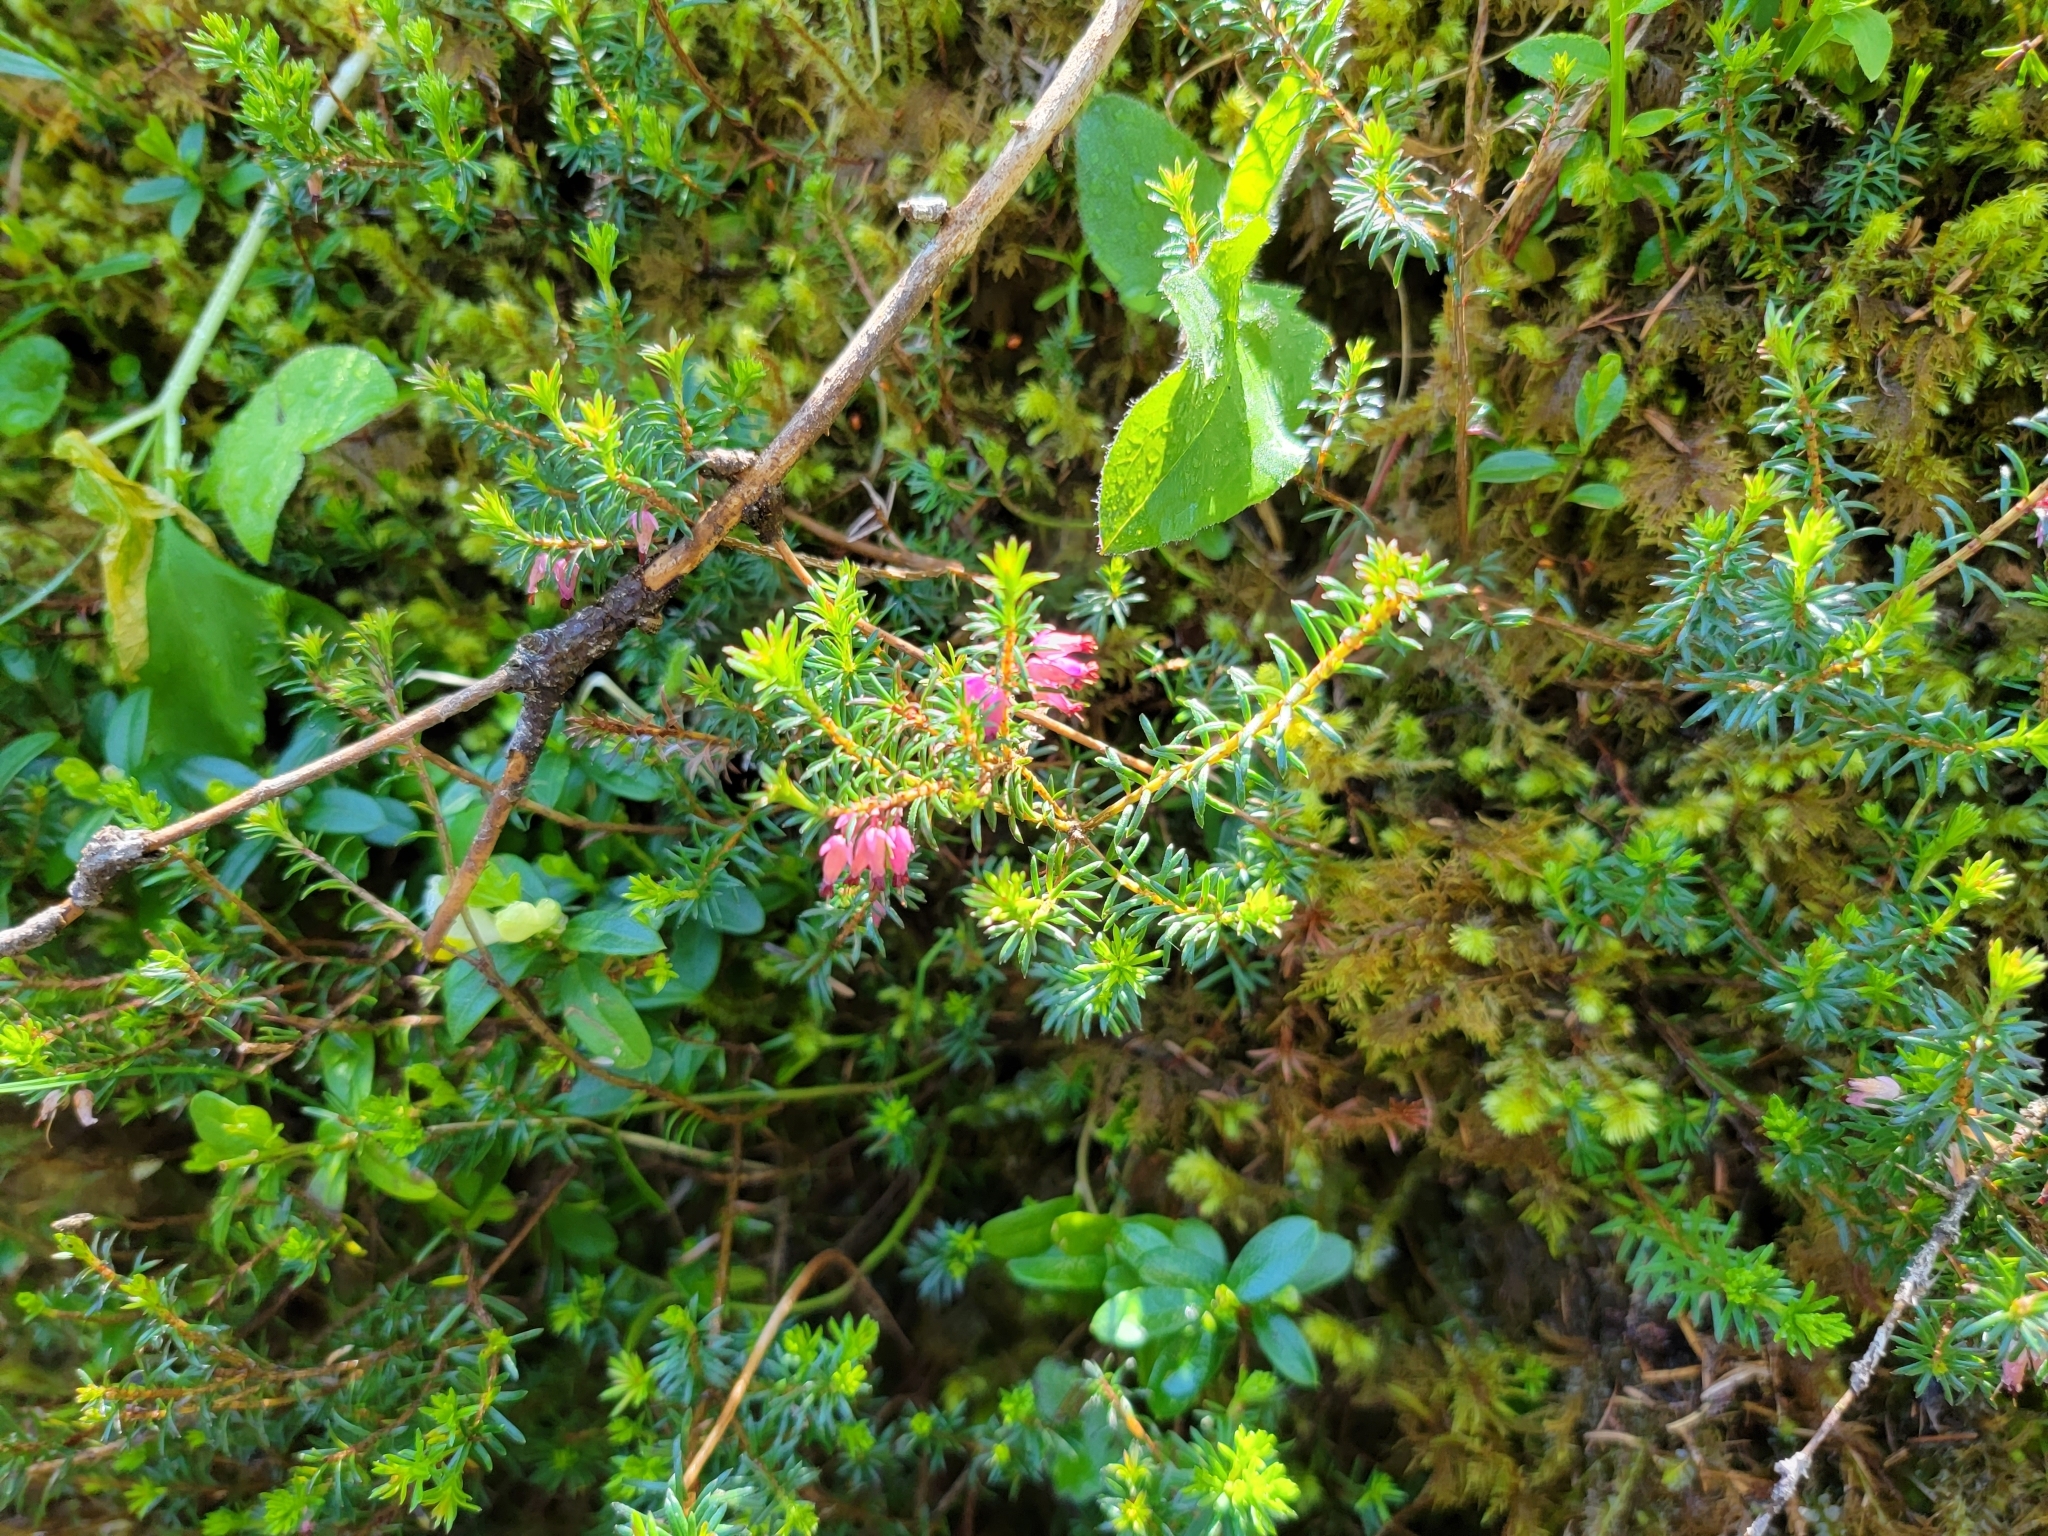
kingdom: Plantae
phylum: Tracheophyta
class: Magnoliopsida
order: Ericales
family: Ericaceae
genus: Erica
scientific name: Erica carnea
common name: Winter heath
